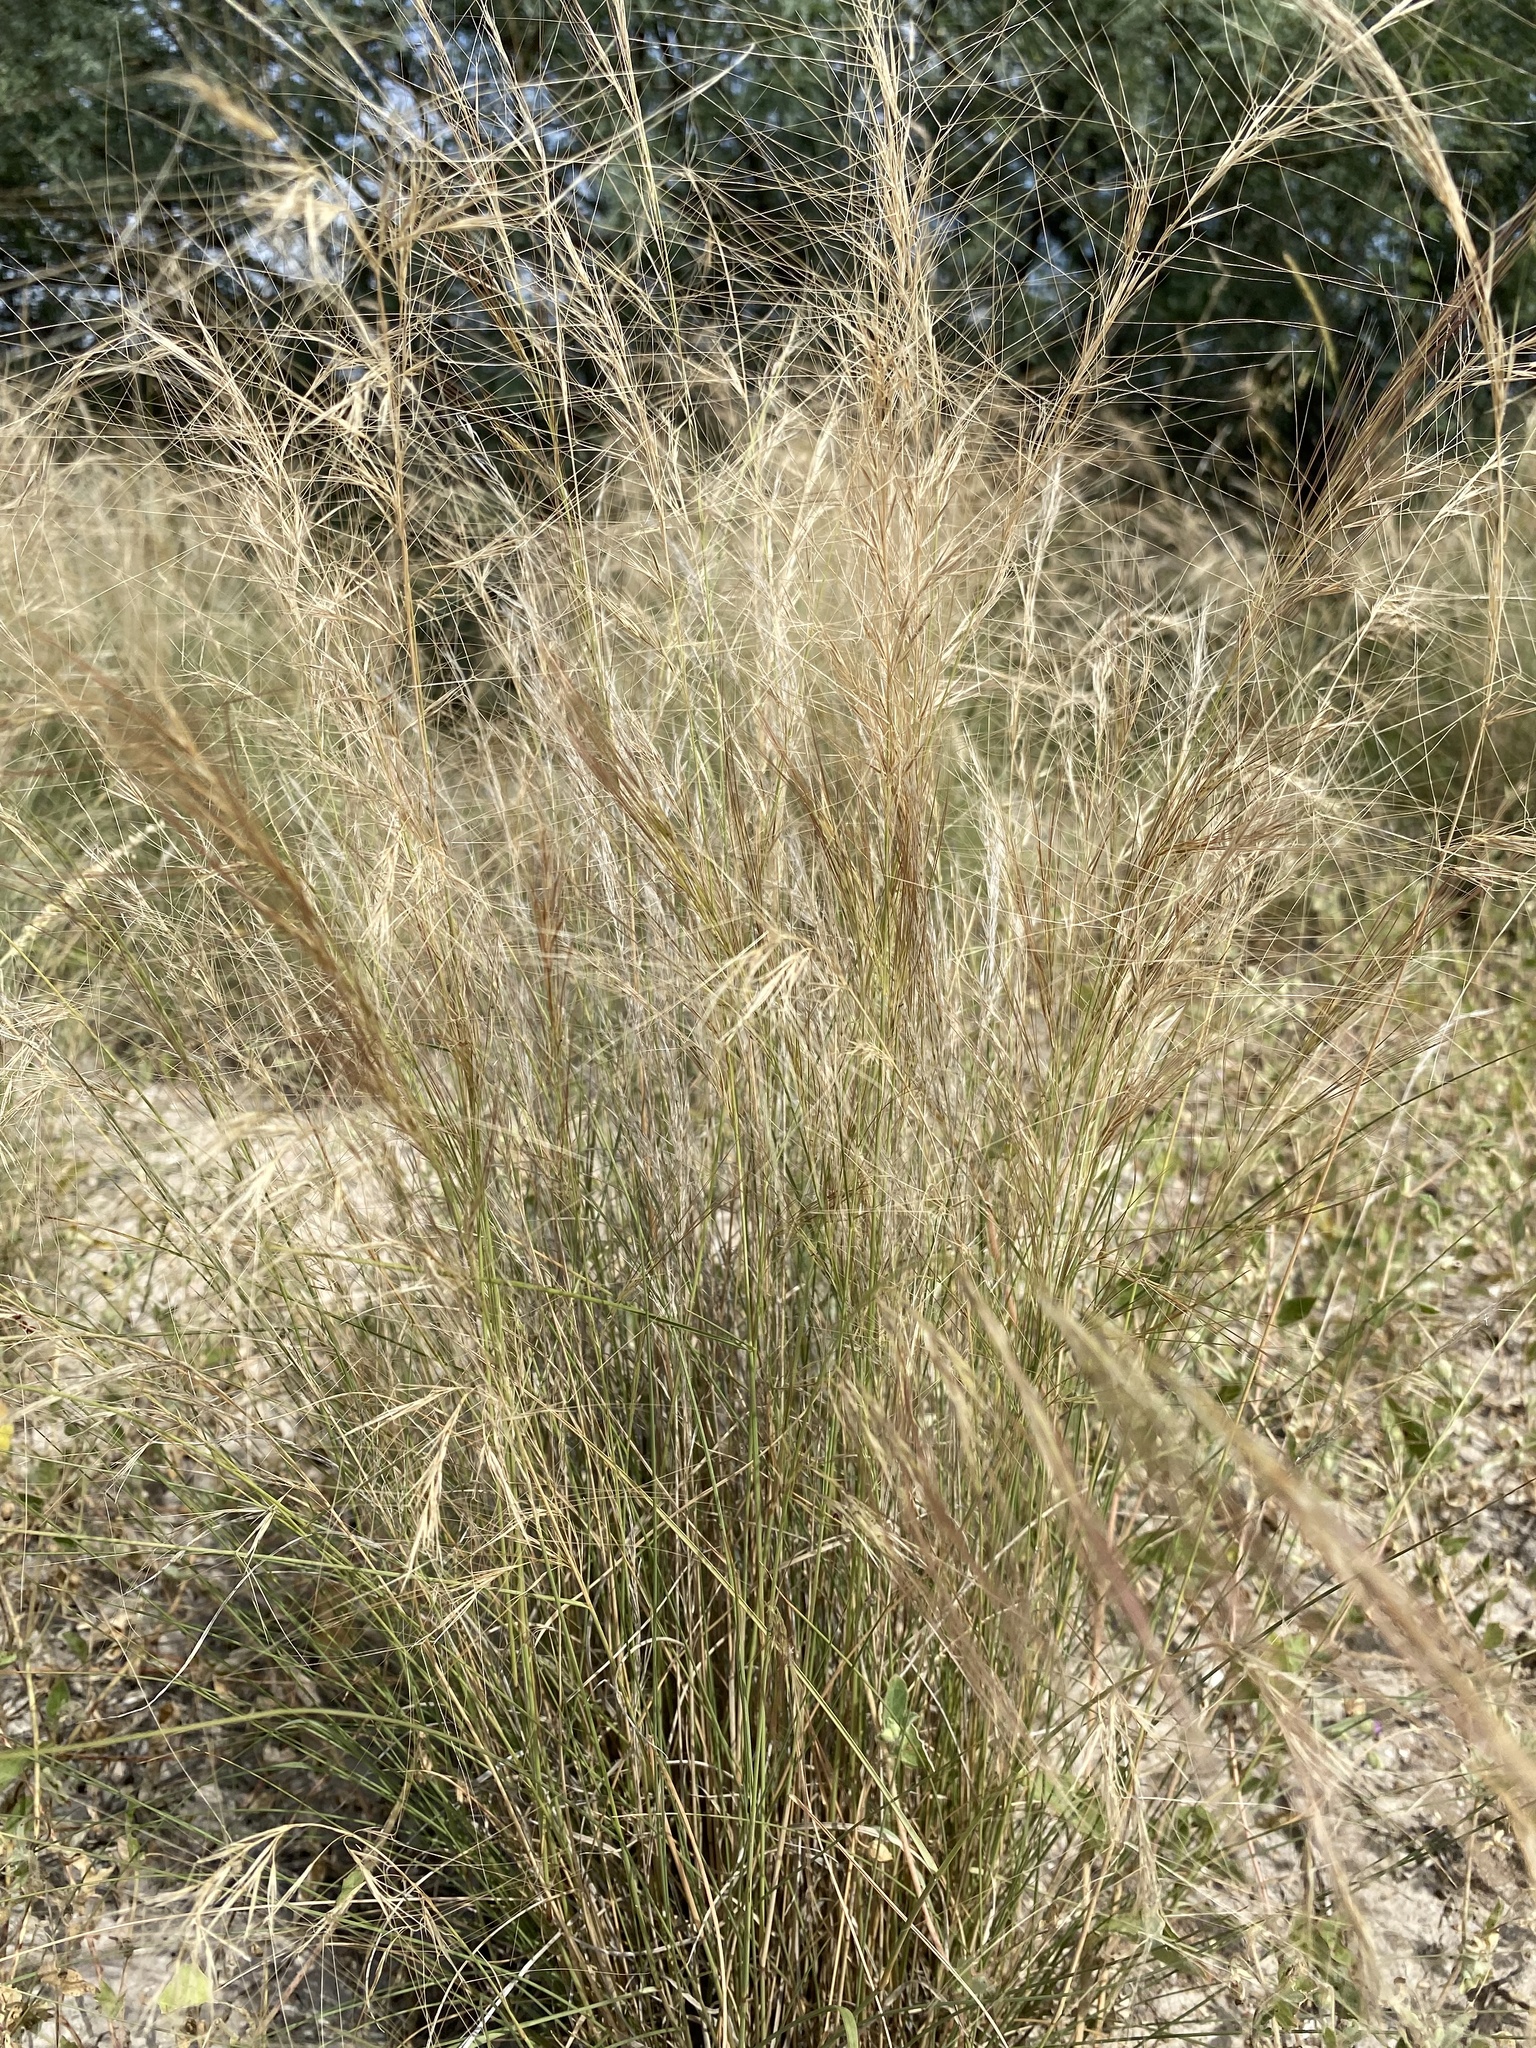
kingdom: Plantae
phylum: Tracheophyta
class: Liliopsida
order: Poales
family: Poaceae
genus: Aristida
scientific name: Aristida purpurea
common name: Purple threeawn
